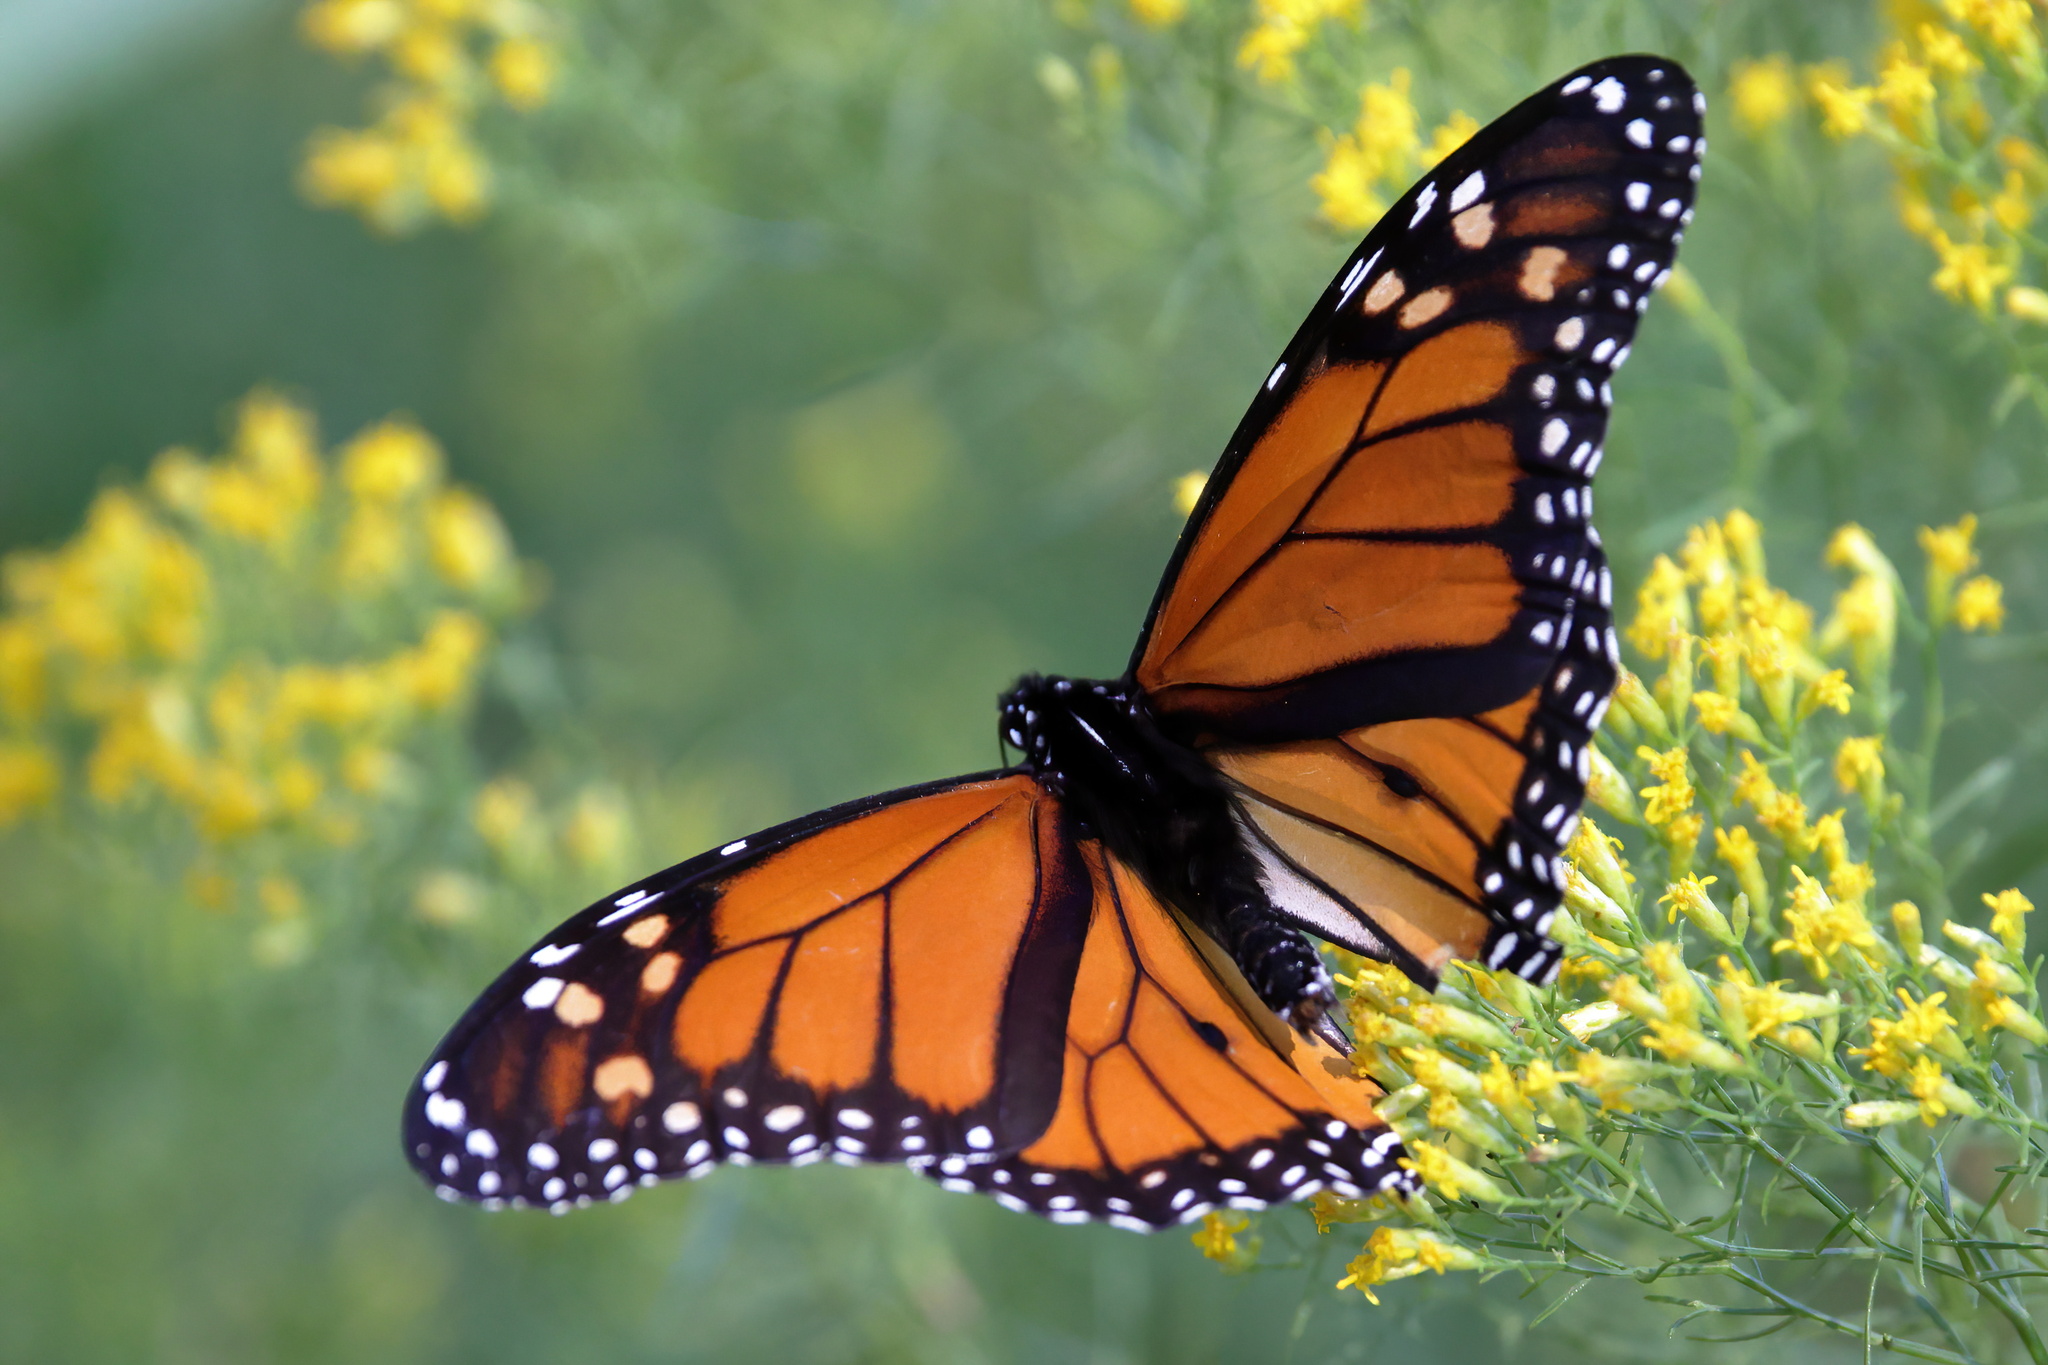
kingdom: Animalia
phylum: Arthropoda
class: Insecta
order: Lepidoptera
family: Nymphalidae
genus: Danaus
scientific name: Danaus plexippus
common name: Monarch
